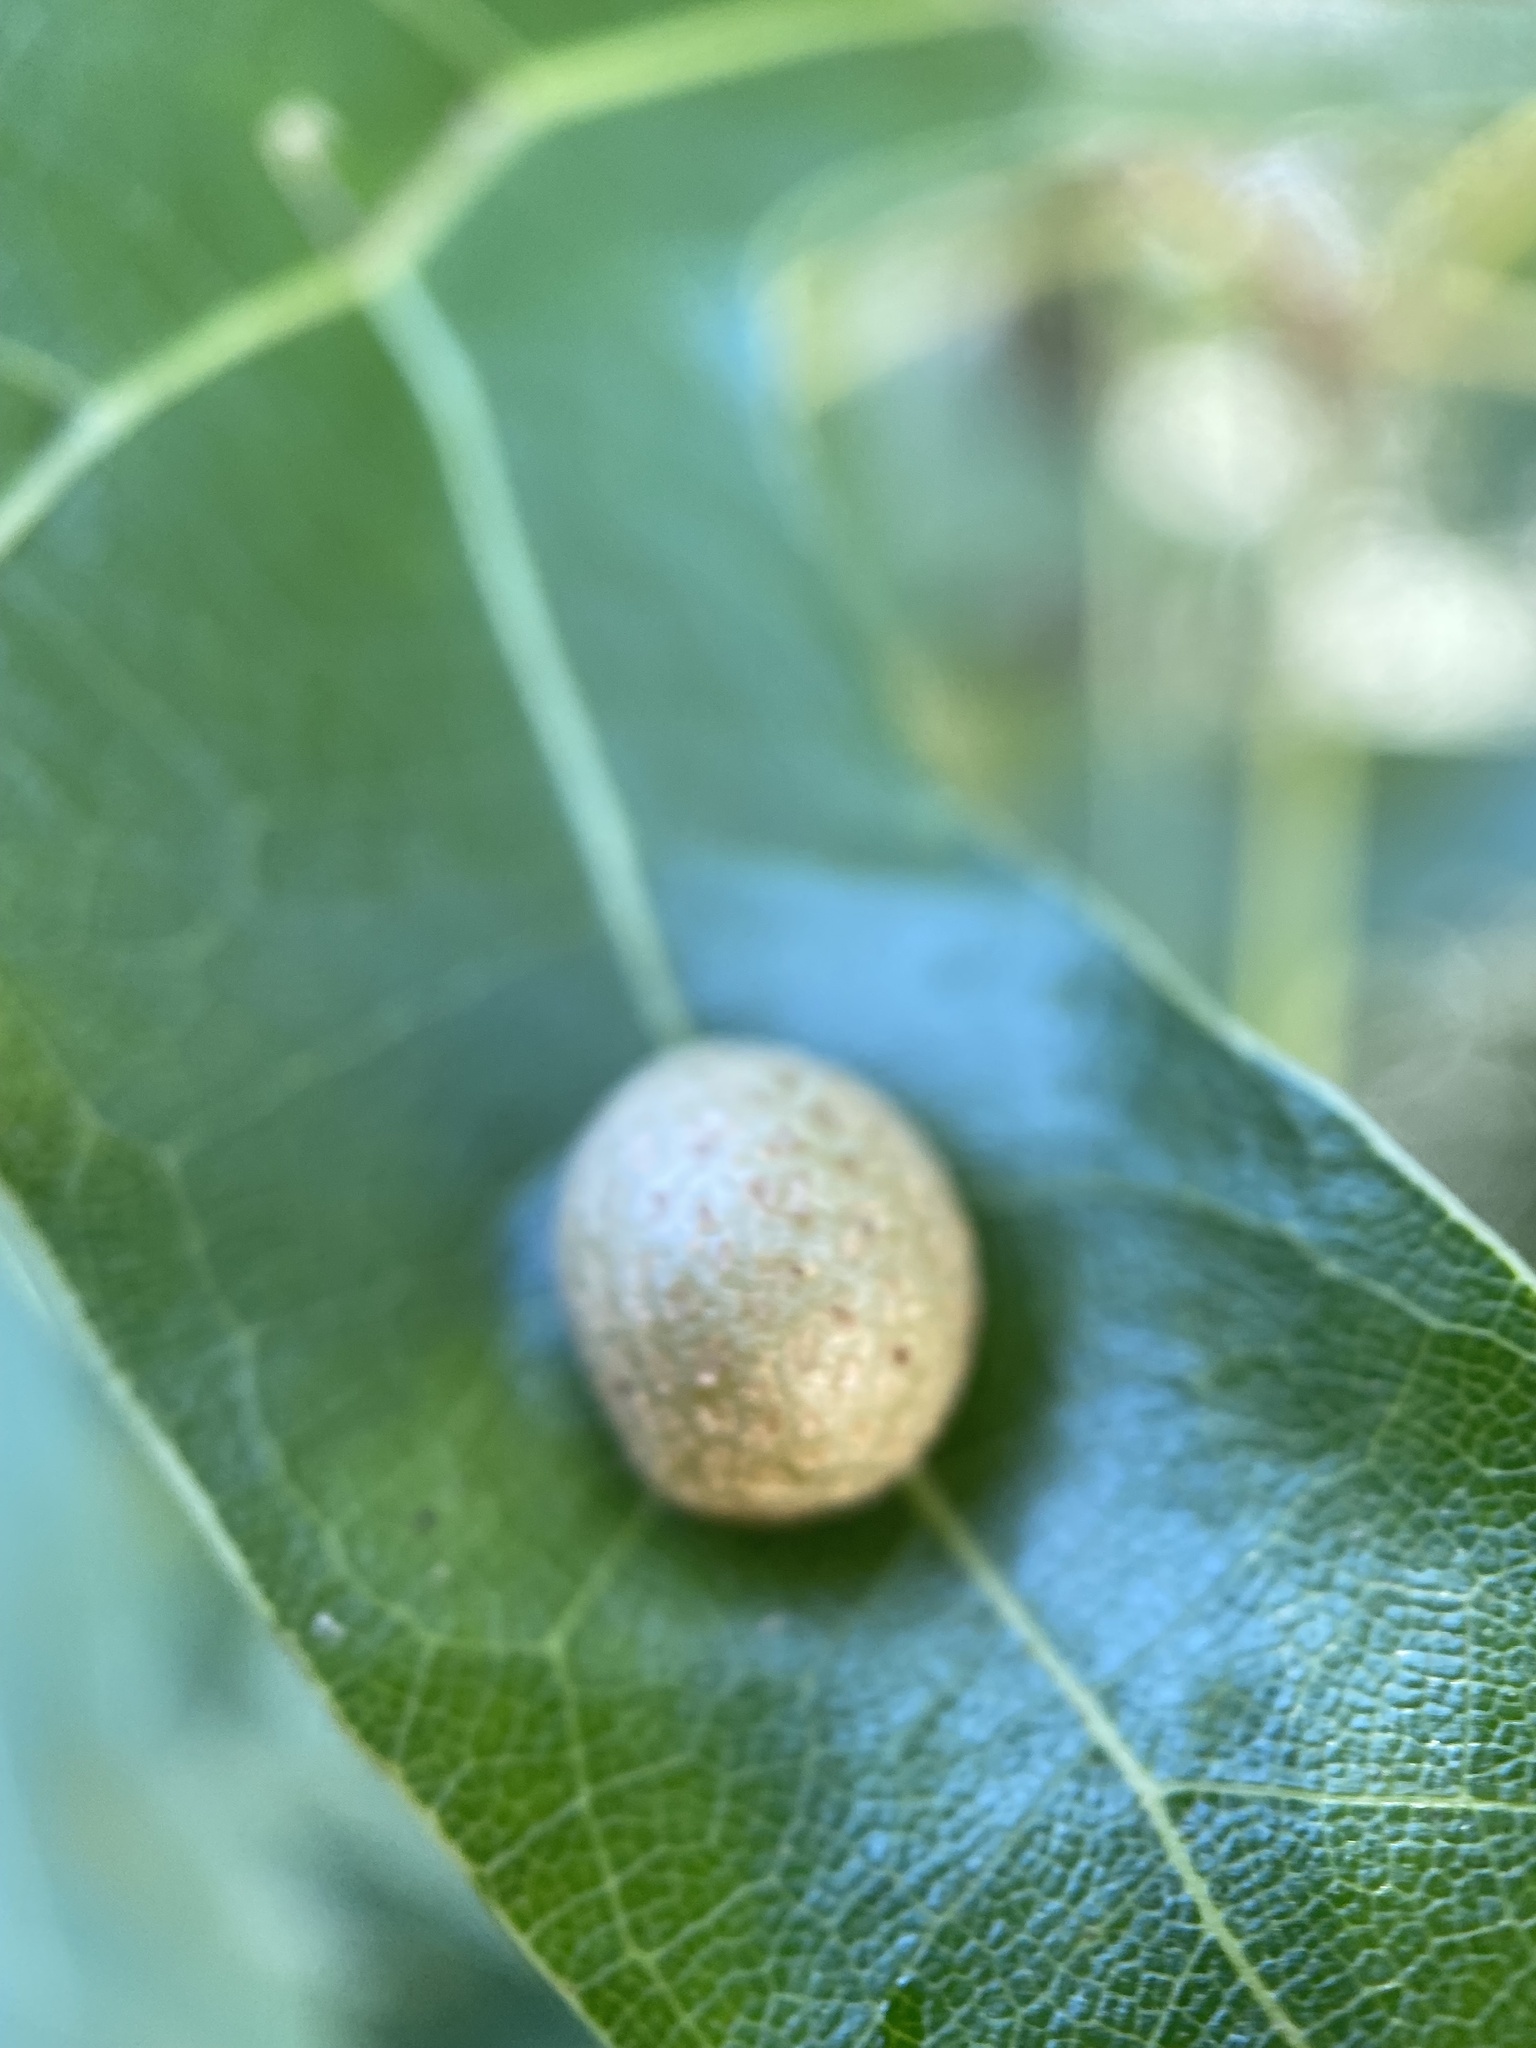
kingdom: Animalia
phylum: Arthropoda
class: Insecta
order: Diptera
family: Cecidomyiidae
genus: Polystepha
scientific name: Polystepha pilulae
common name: Oak leaf gall midge
